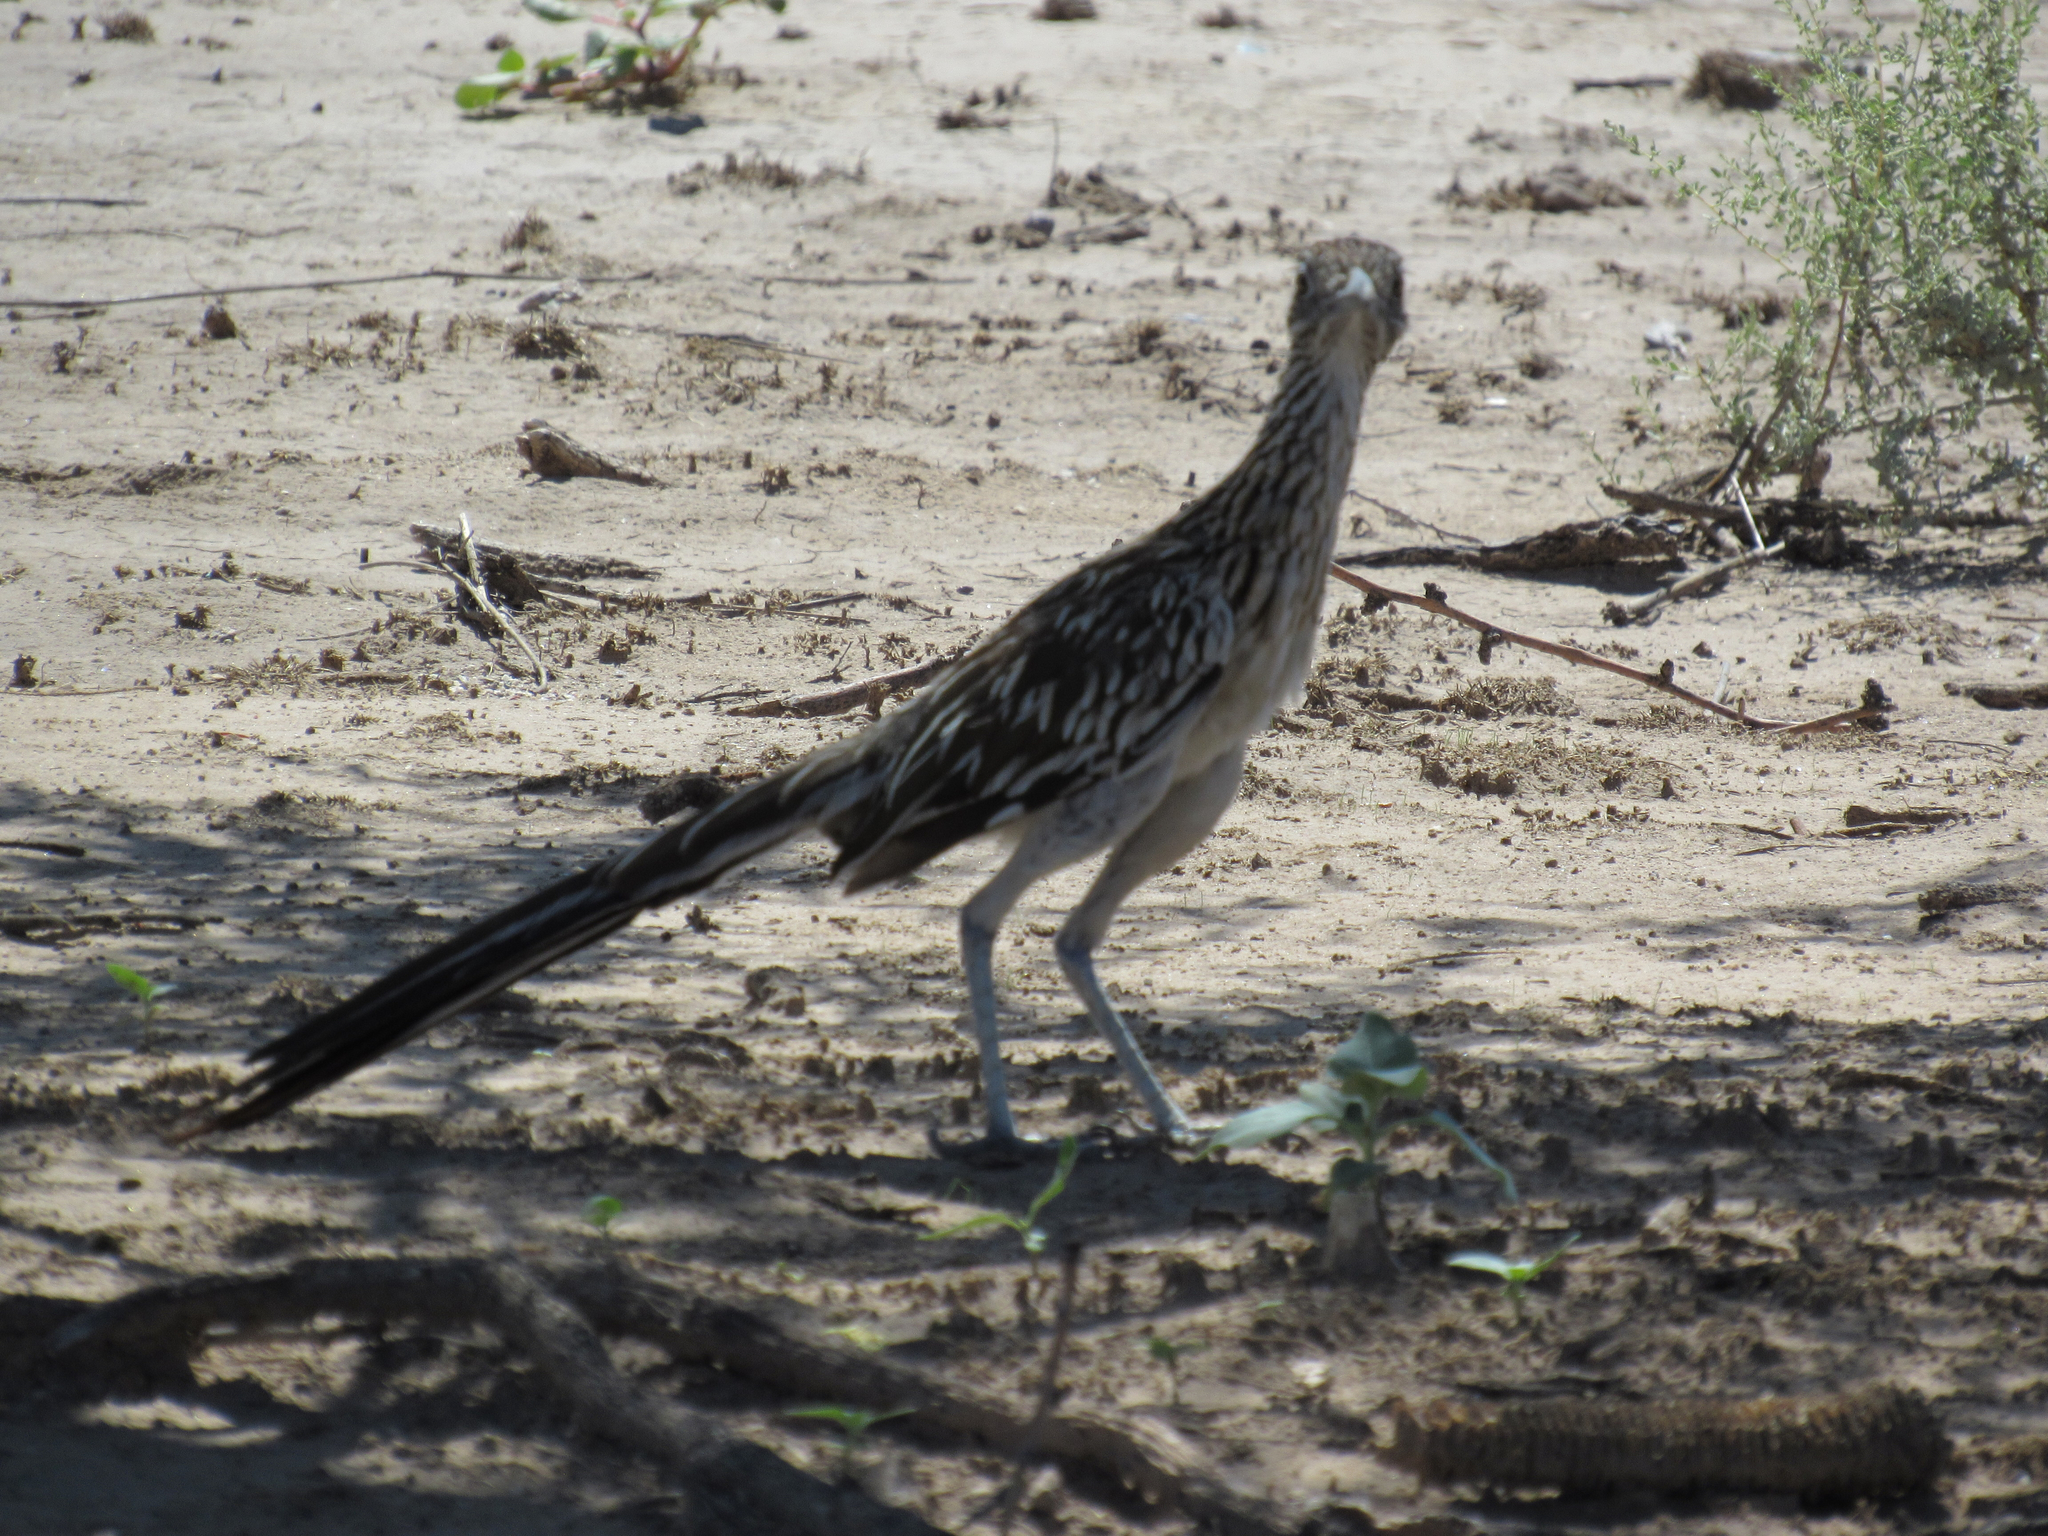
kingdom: Animalia
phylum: Chordata
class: Aves
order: Cuculiformes
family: Cuculidae
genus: Geococcyx
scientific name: Geococcyx californianus
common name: Greater roadrunner
